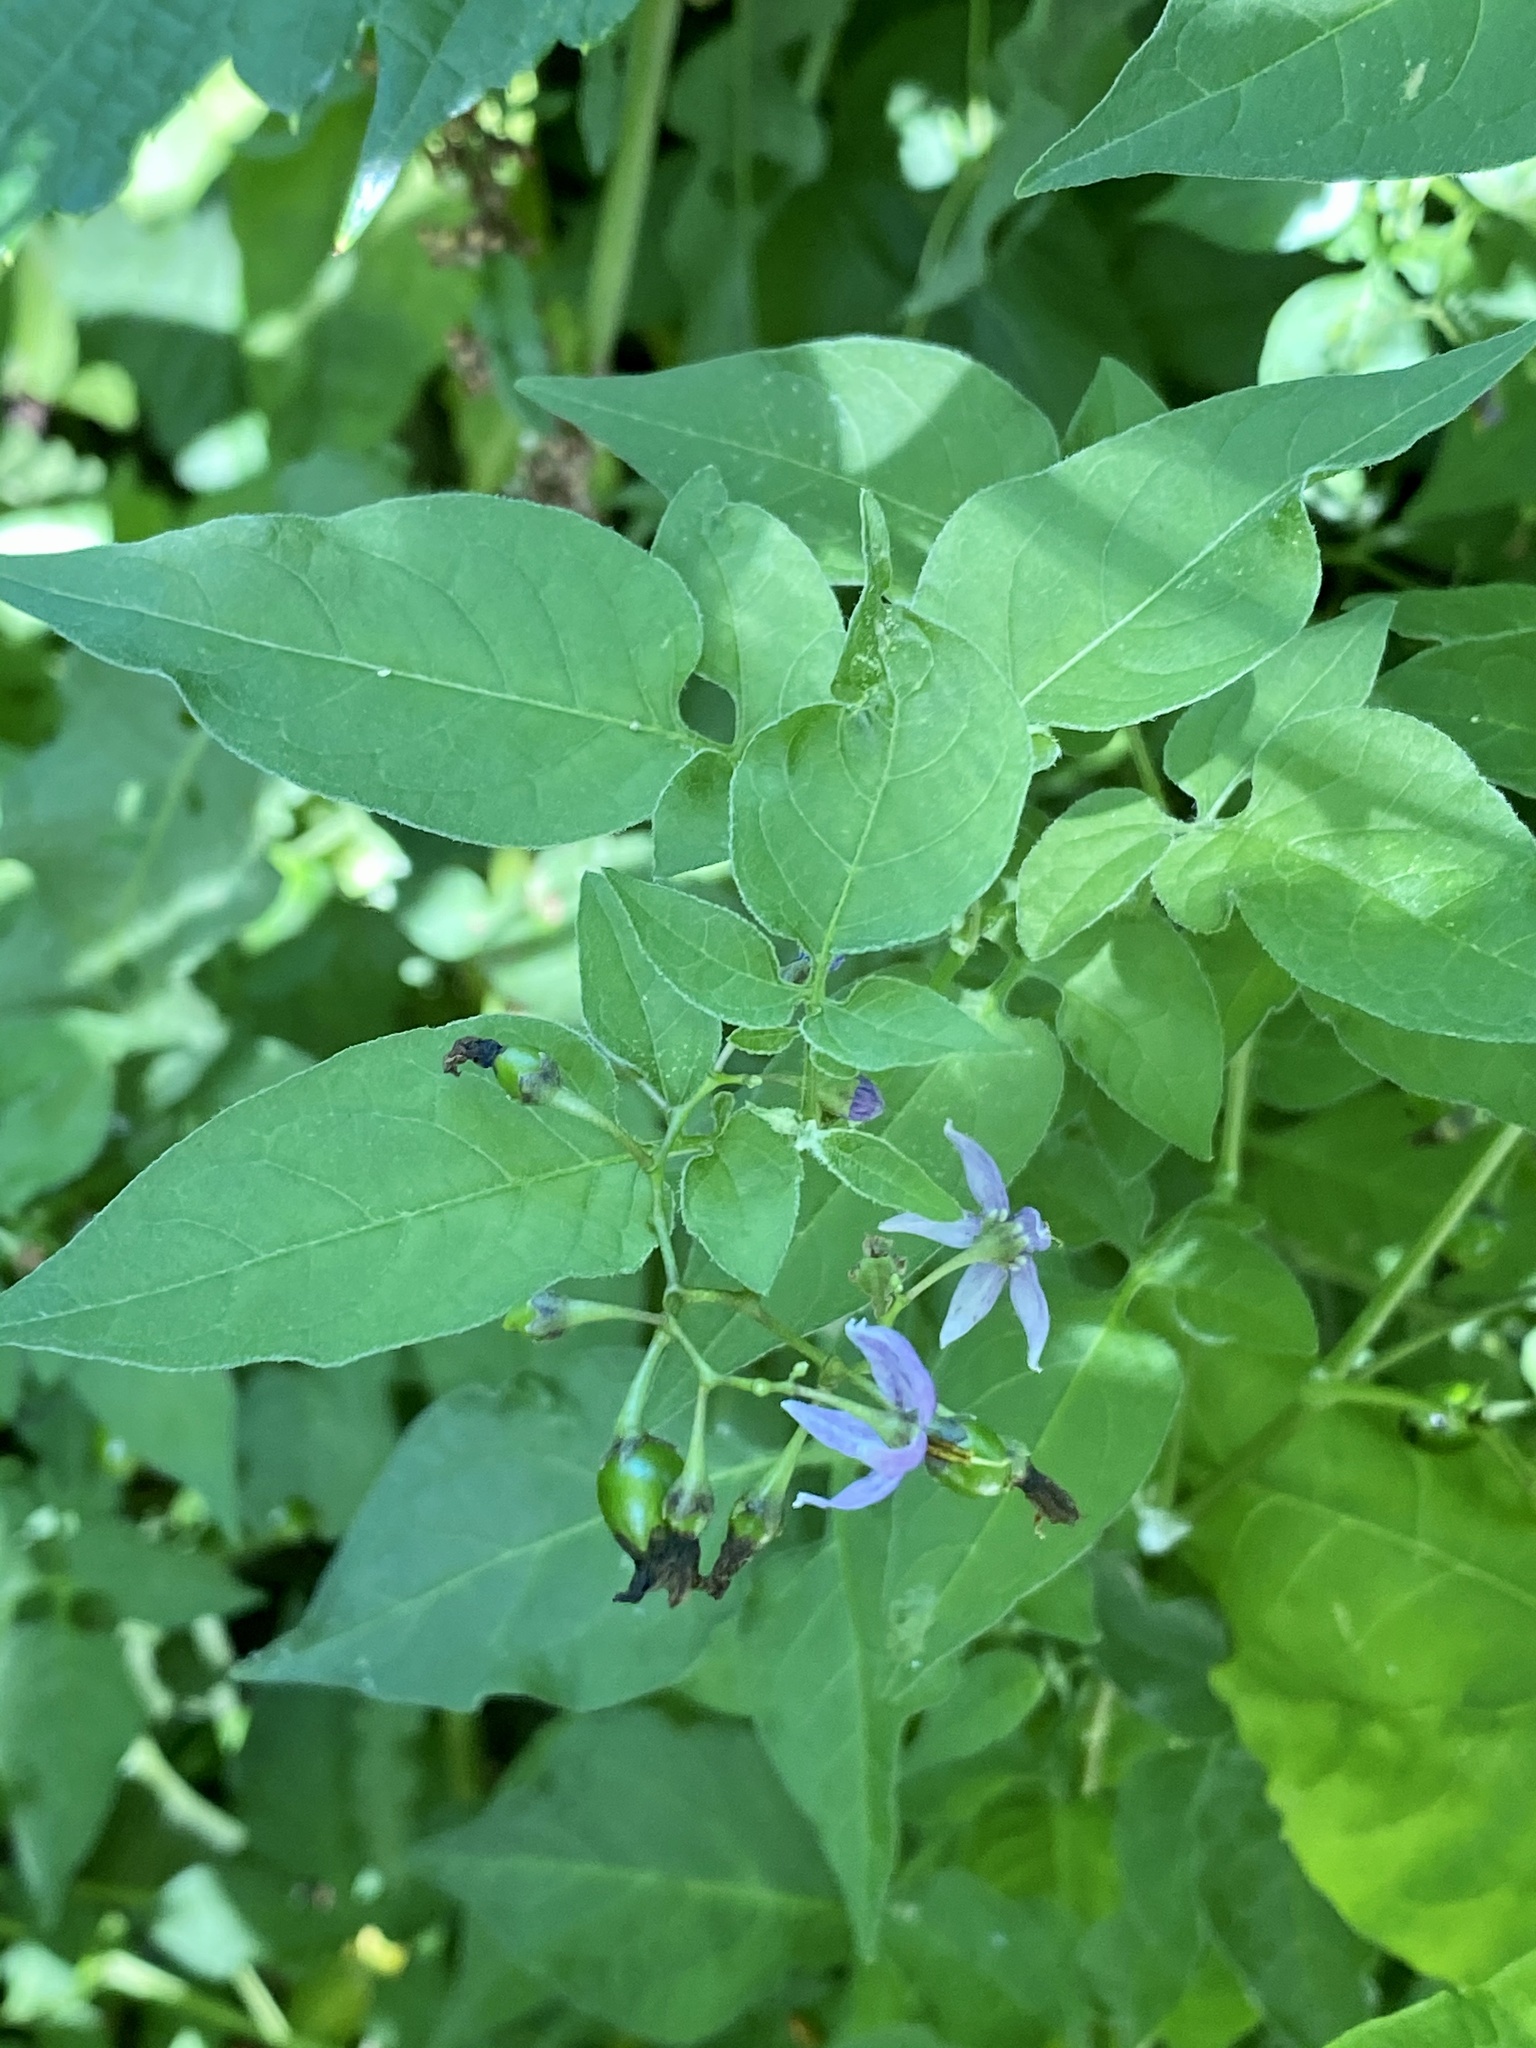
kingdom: Plantae
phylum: Tracheophyta
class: Magnoliopsida
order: Solanales
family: Solanaceae
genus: Solanum
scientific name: Solanum dulcamara
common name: Climbing nightshade
